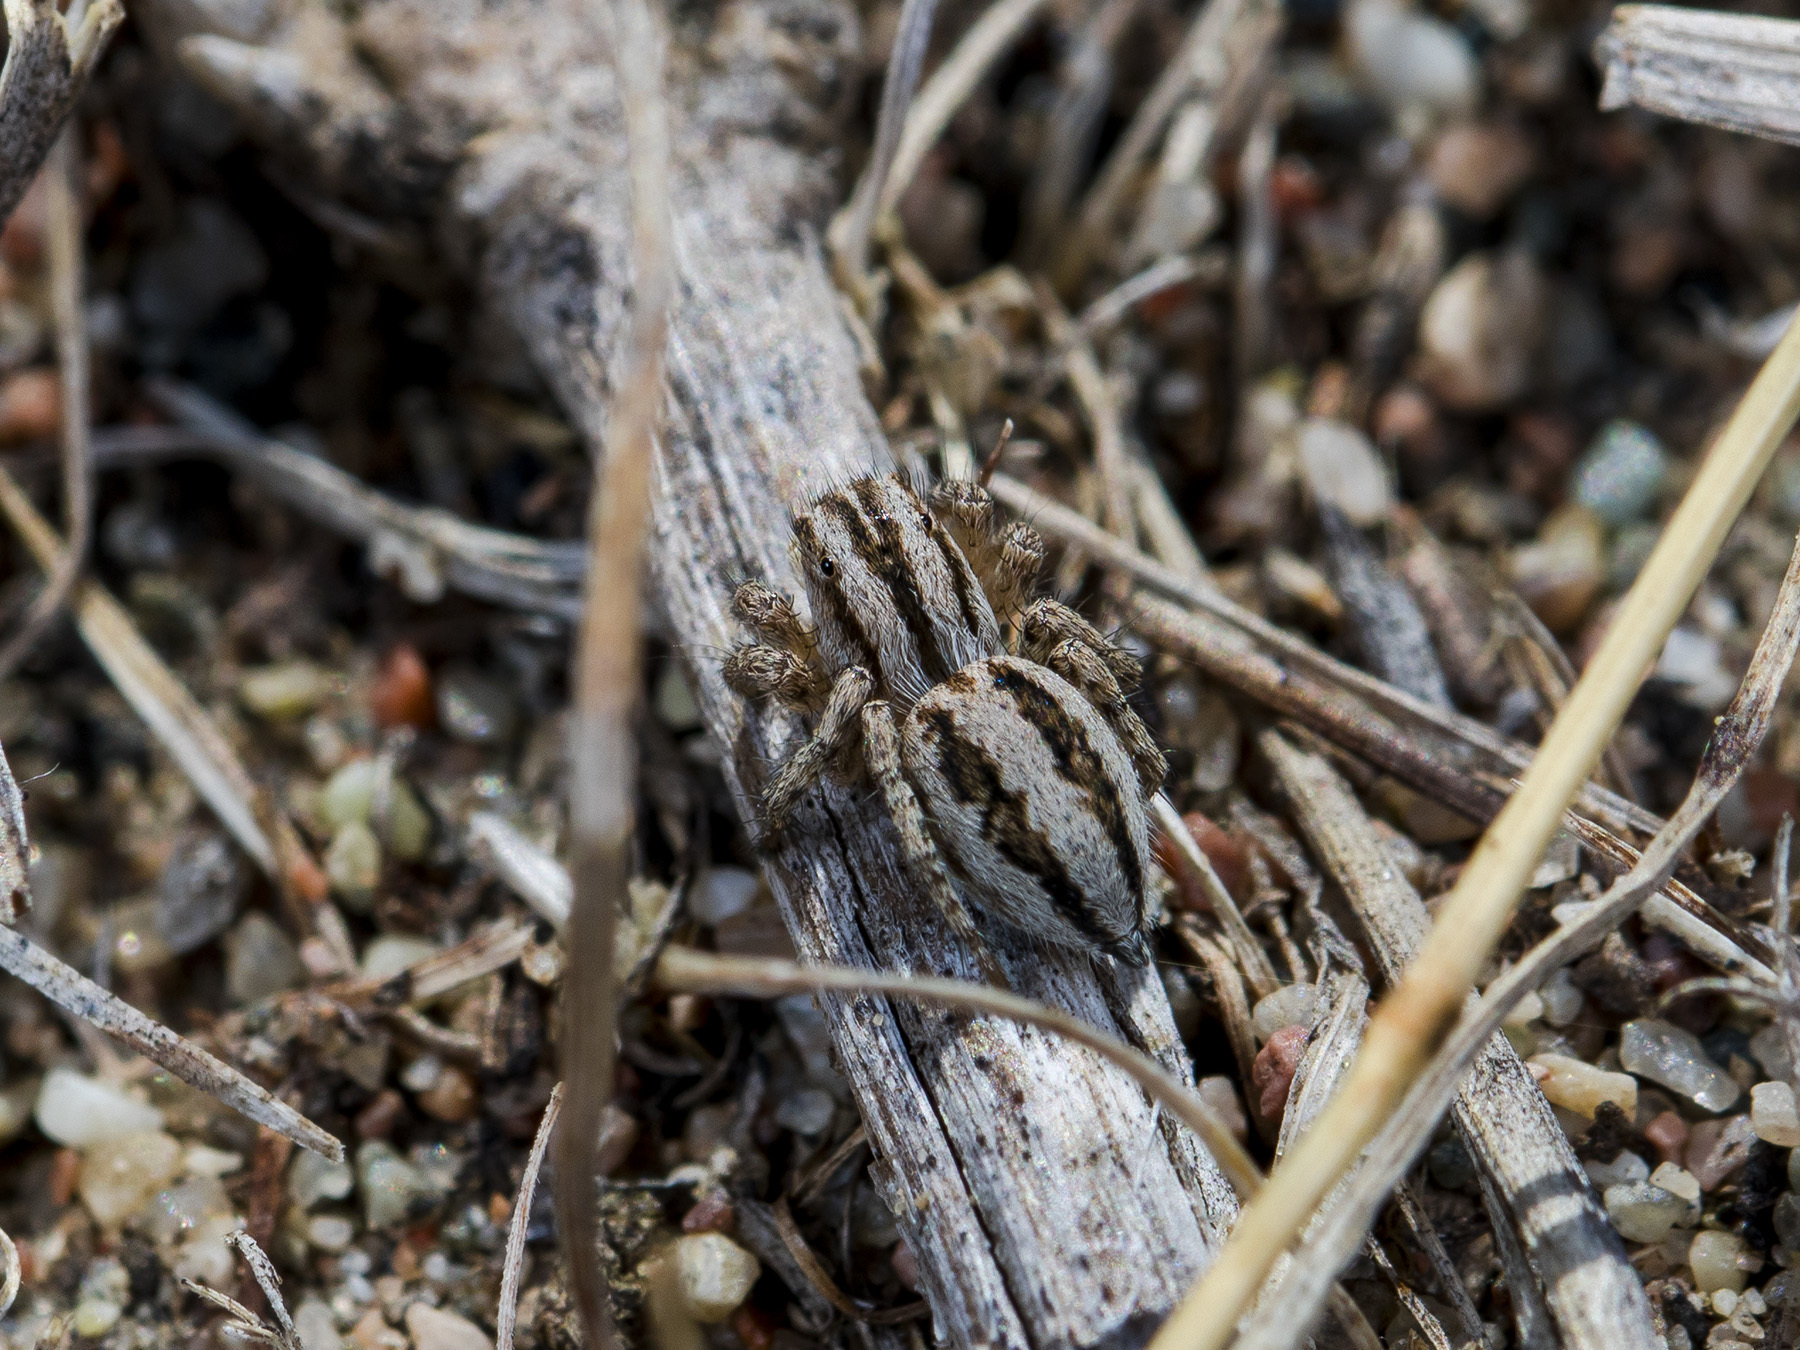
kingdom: Animalia
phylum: Arthropoda
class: Arachnida
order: Araneae
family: Salticidae
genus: Aelurillus
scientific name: Aelurillus m-nigrum
